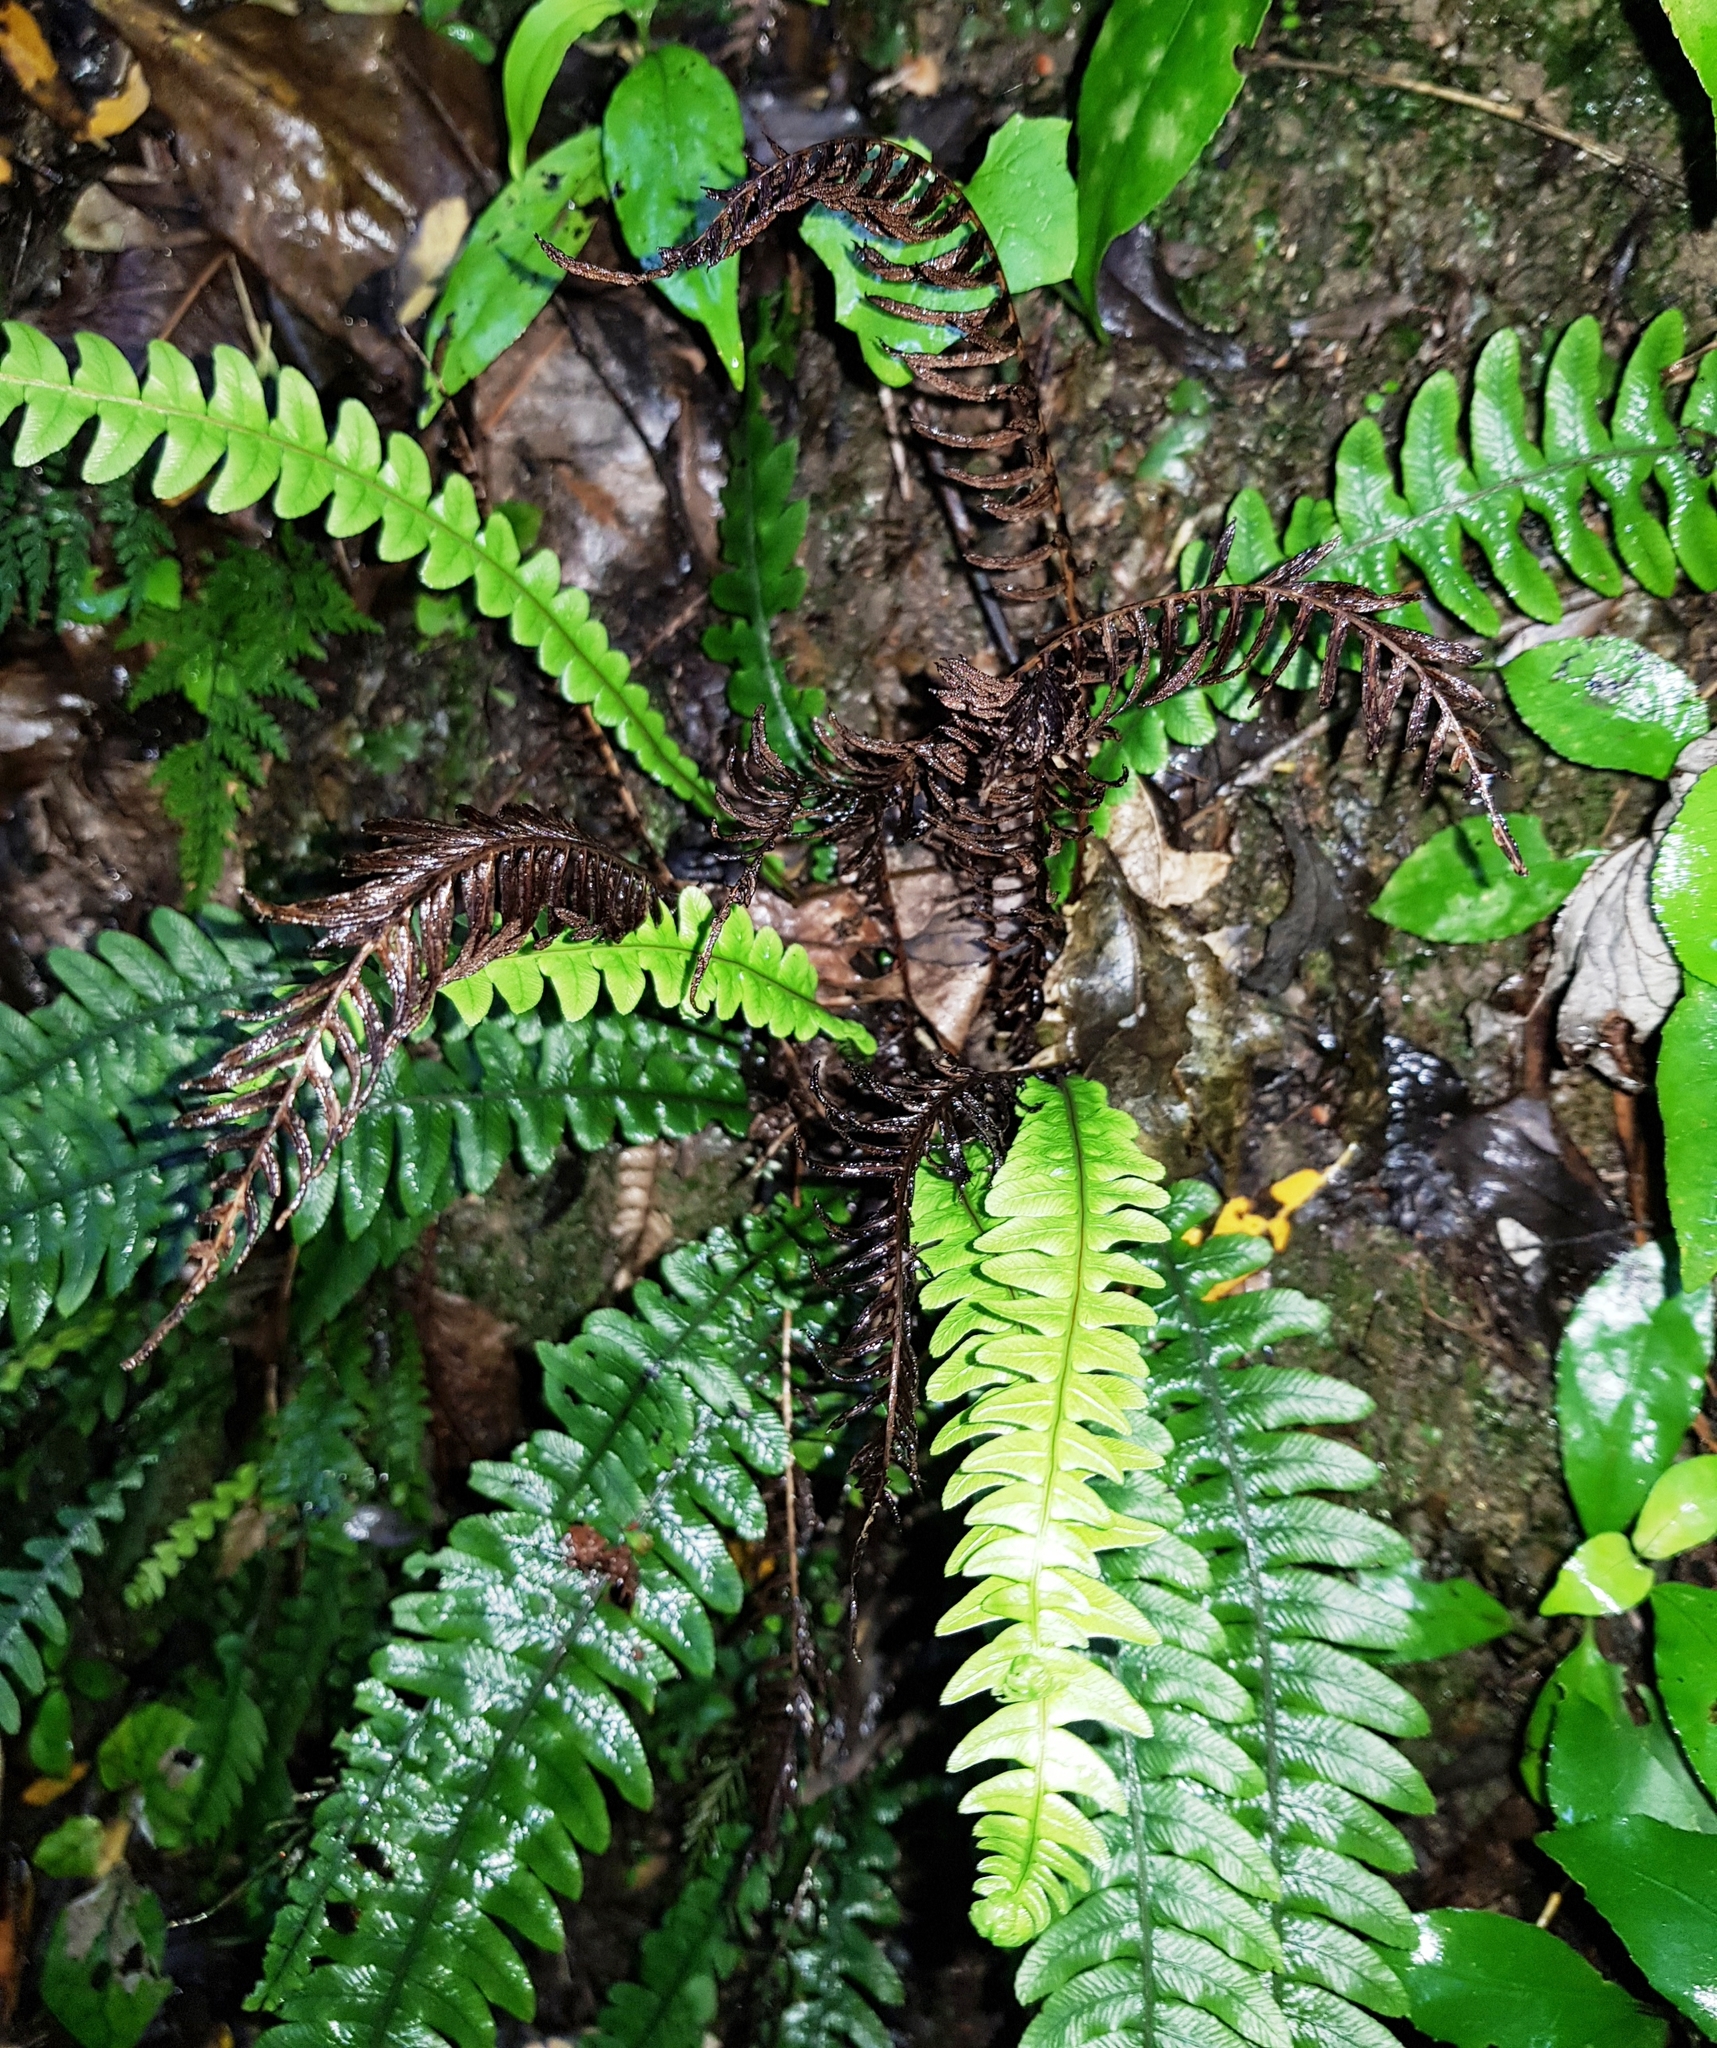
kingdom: Plantae
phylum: Tracheophyta
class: Polypodiopsida
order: Polypodiales
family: Blechnaceae
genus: Austroblechnum
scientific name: Austroblechnum lanceolatum
